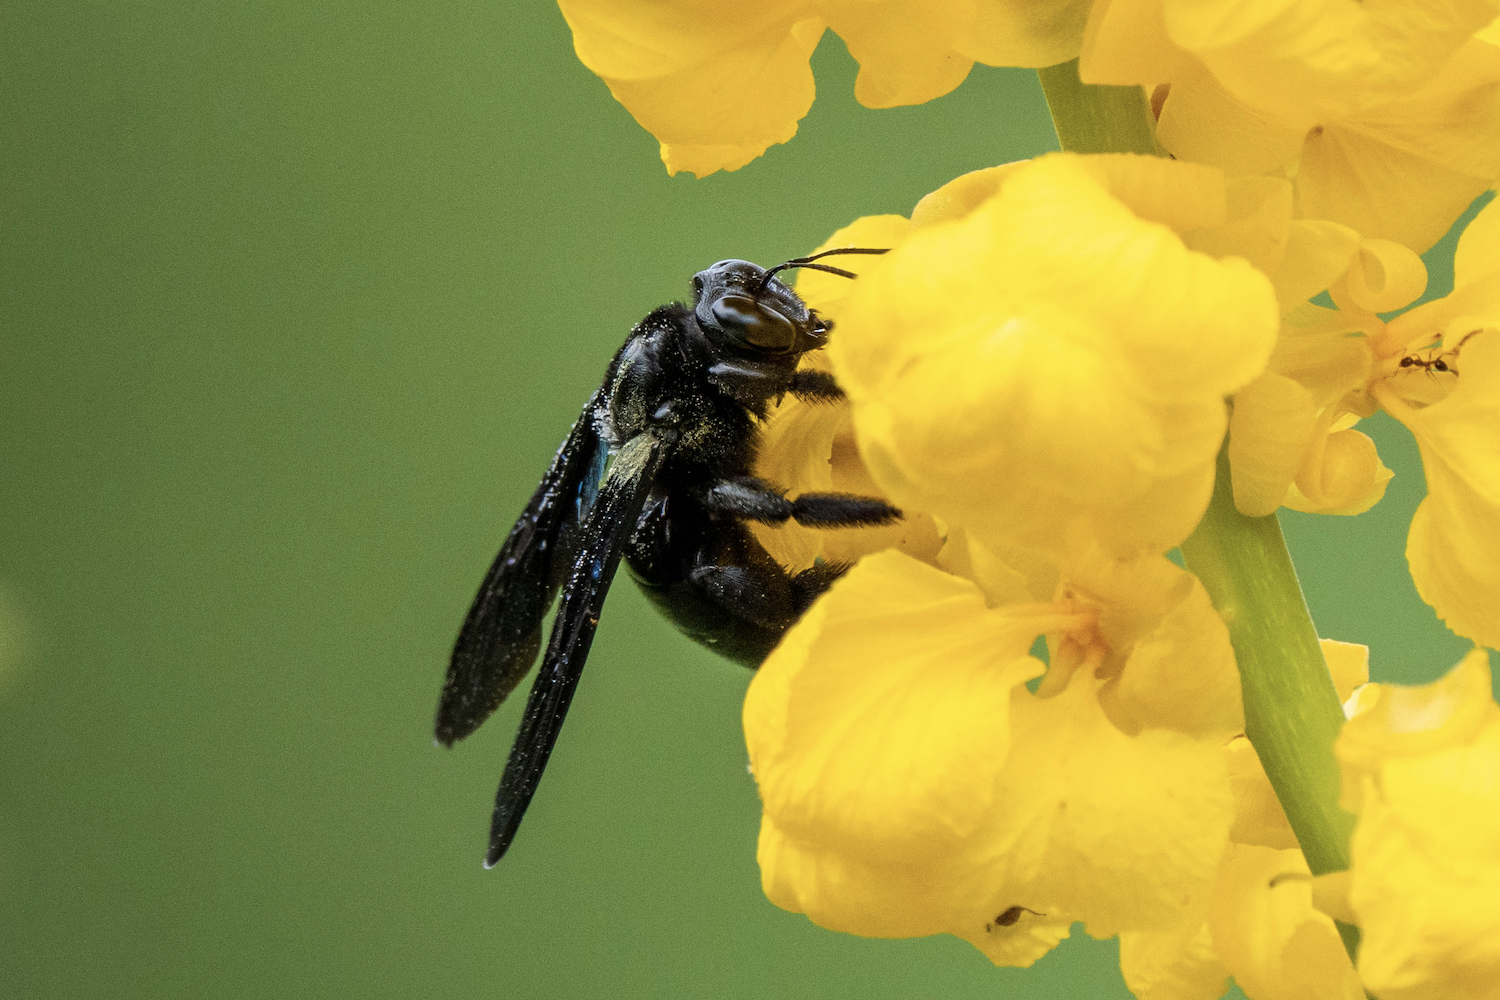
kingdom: Animalia
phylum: Arthropoda
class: Insecta
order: Hymenoptera
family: Apidae
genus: Xylocopa
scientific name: Xylocopa nasalis
